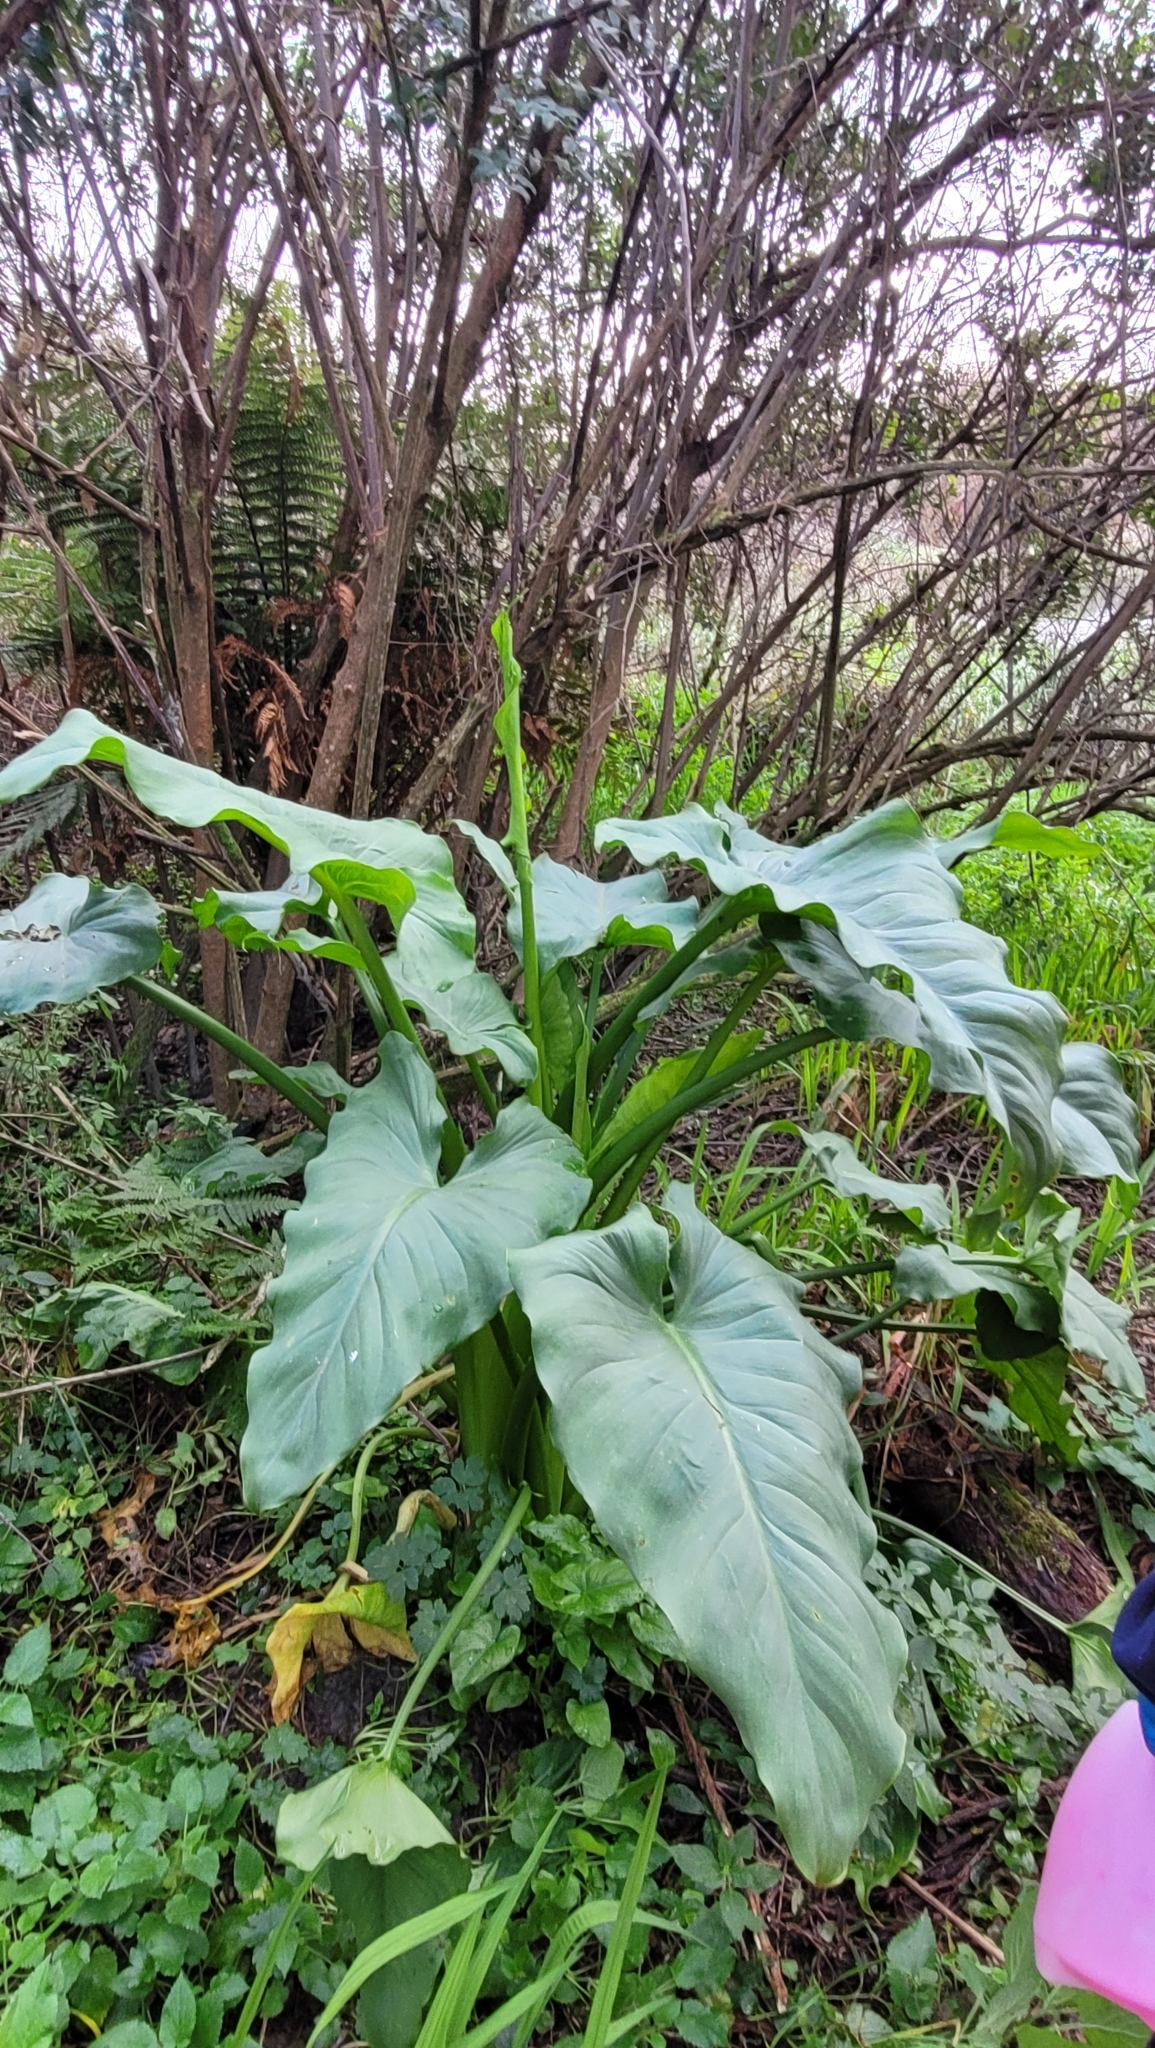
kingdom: Plantae
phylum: Tracheophyta
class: Liliopsida
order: Alismatales
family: Araceae
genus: Zantedeschia
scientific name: Zantedeschia aethiopica
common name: Altar-lily
